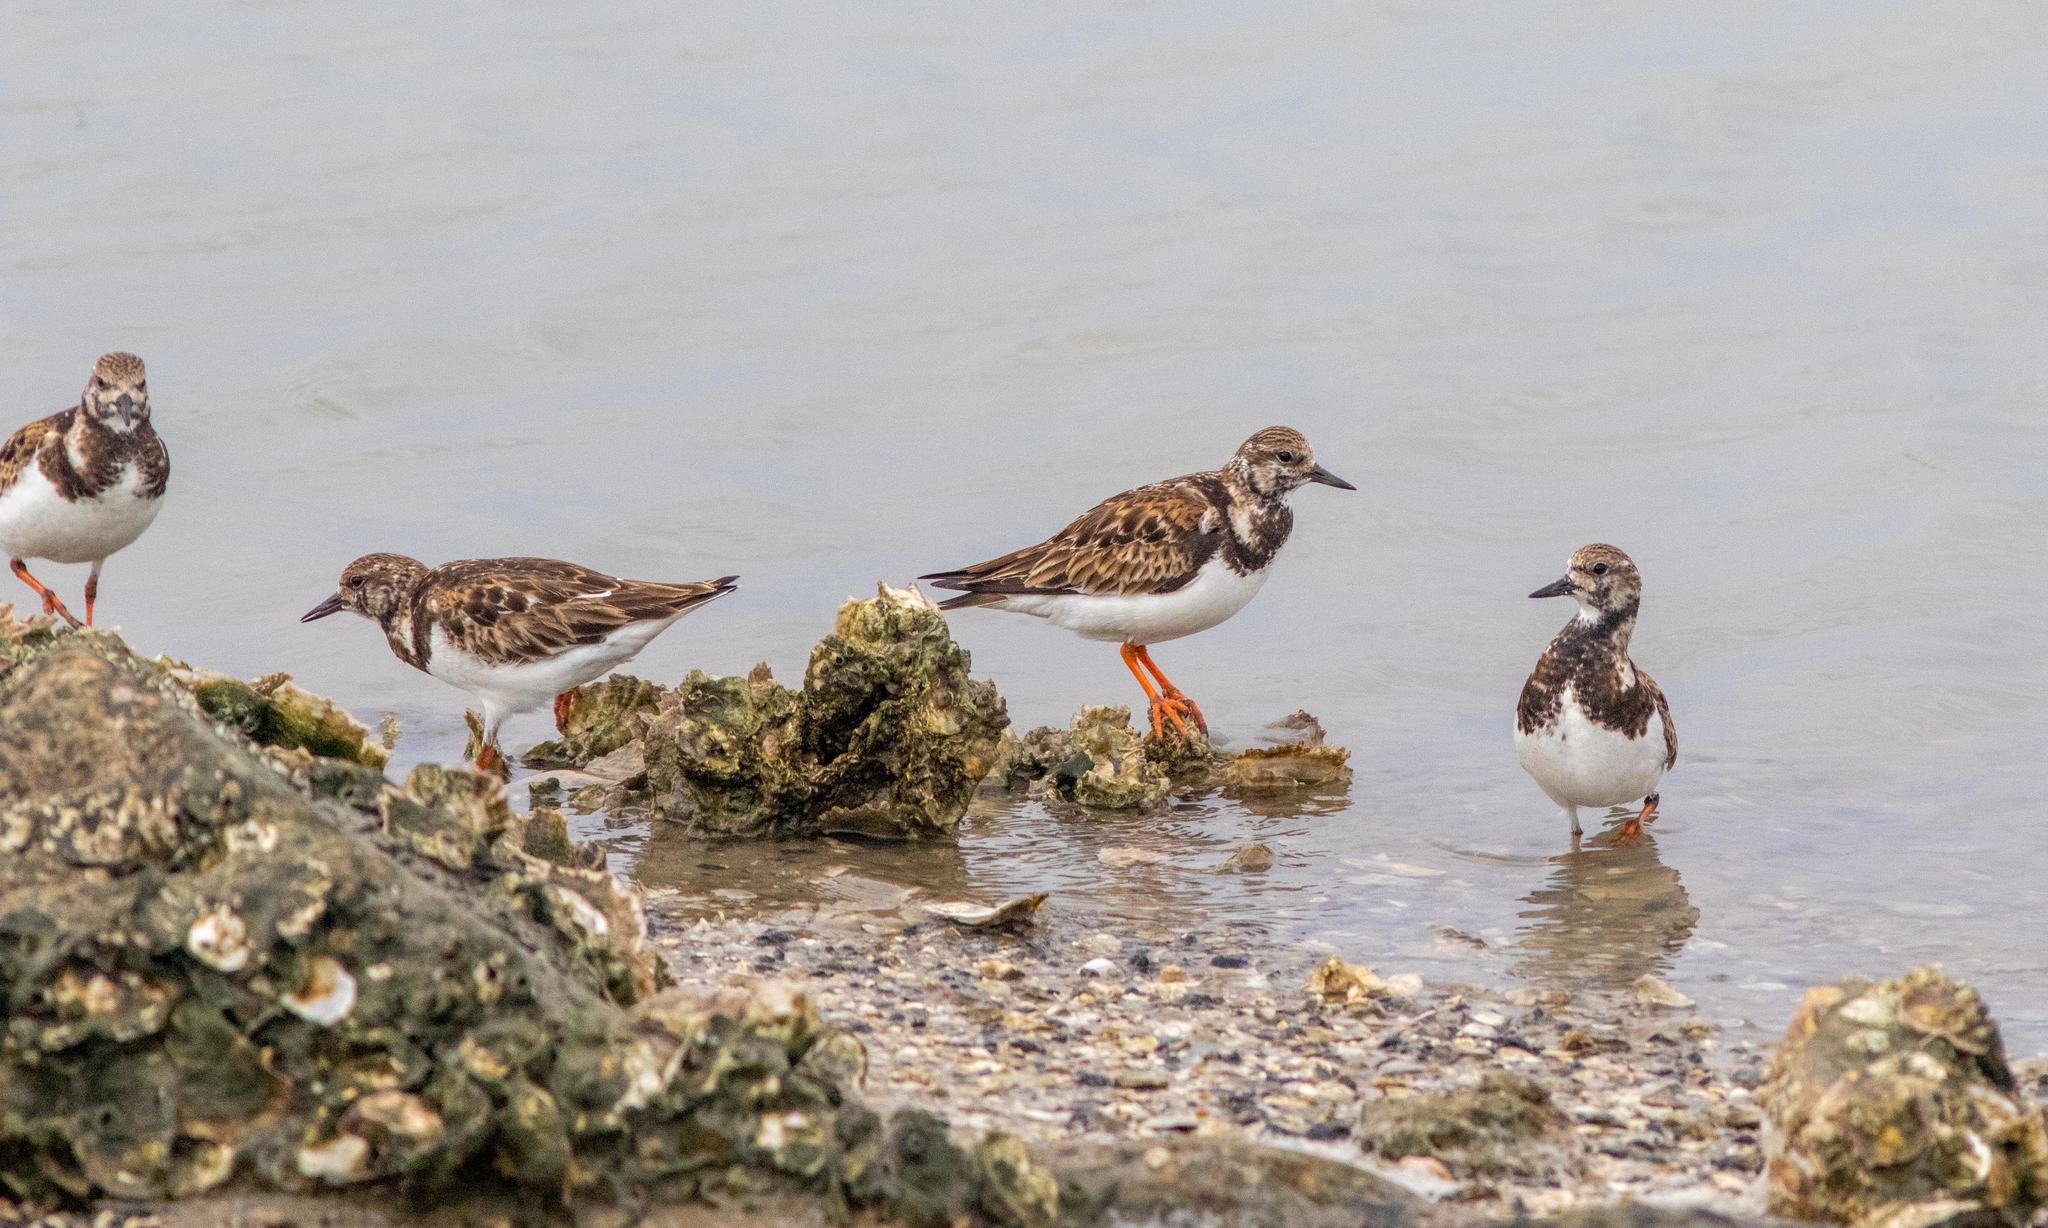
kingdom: Animalia
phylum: Chordata
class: Aves
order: Charadriiformes
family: Scolopacidae
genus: Arenaria
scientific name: Arenaria interpres
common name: Ruddy turnstone
